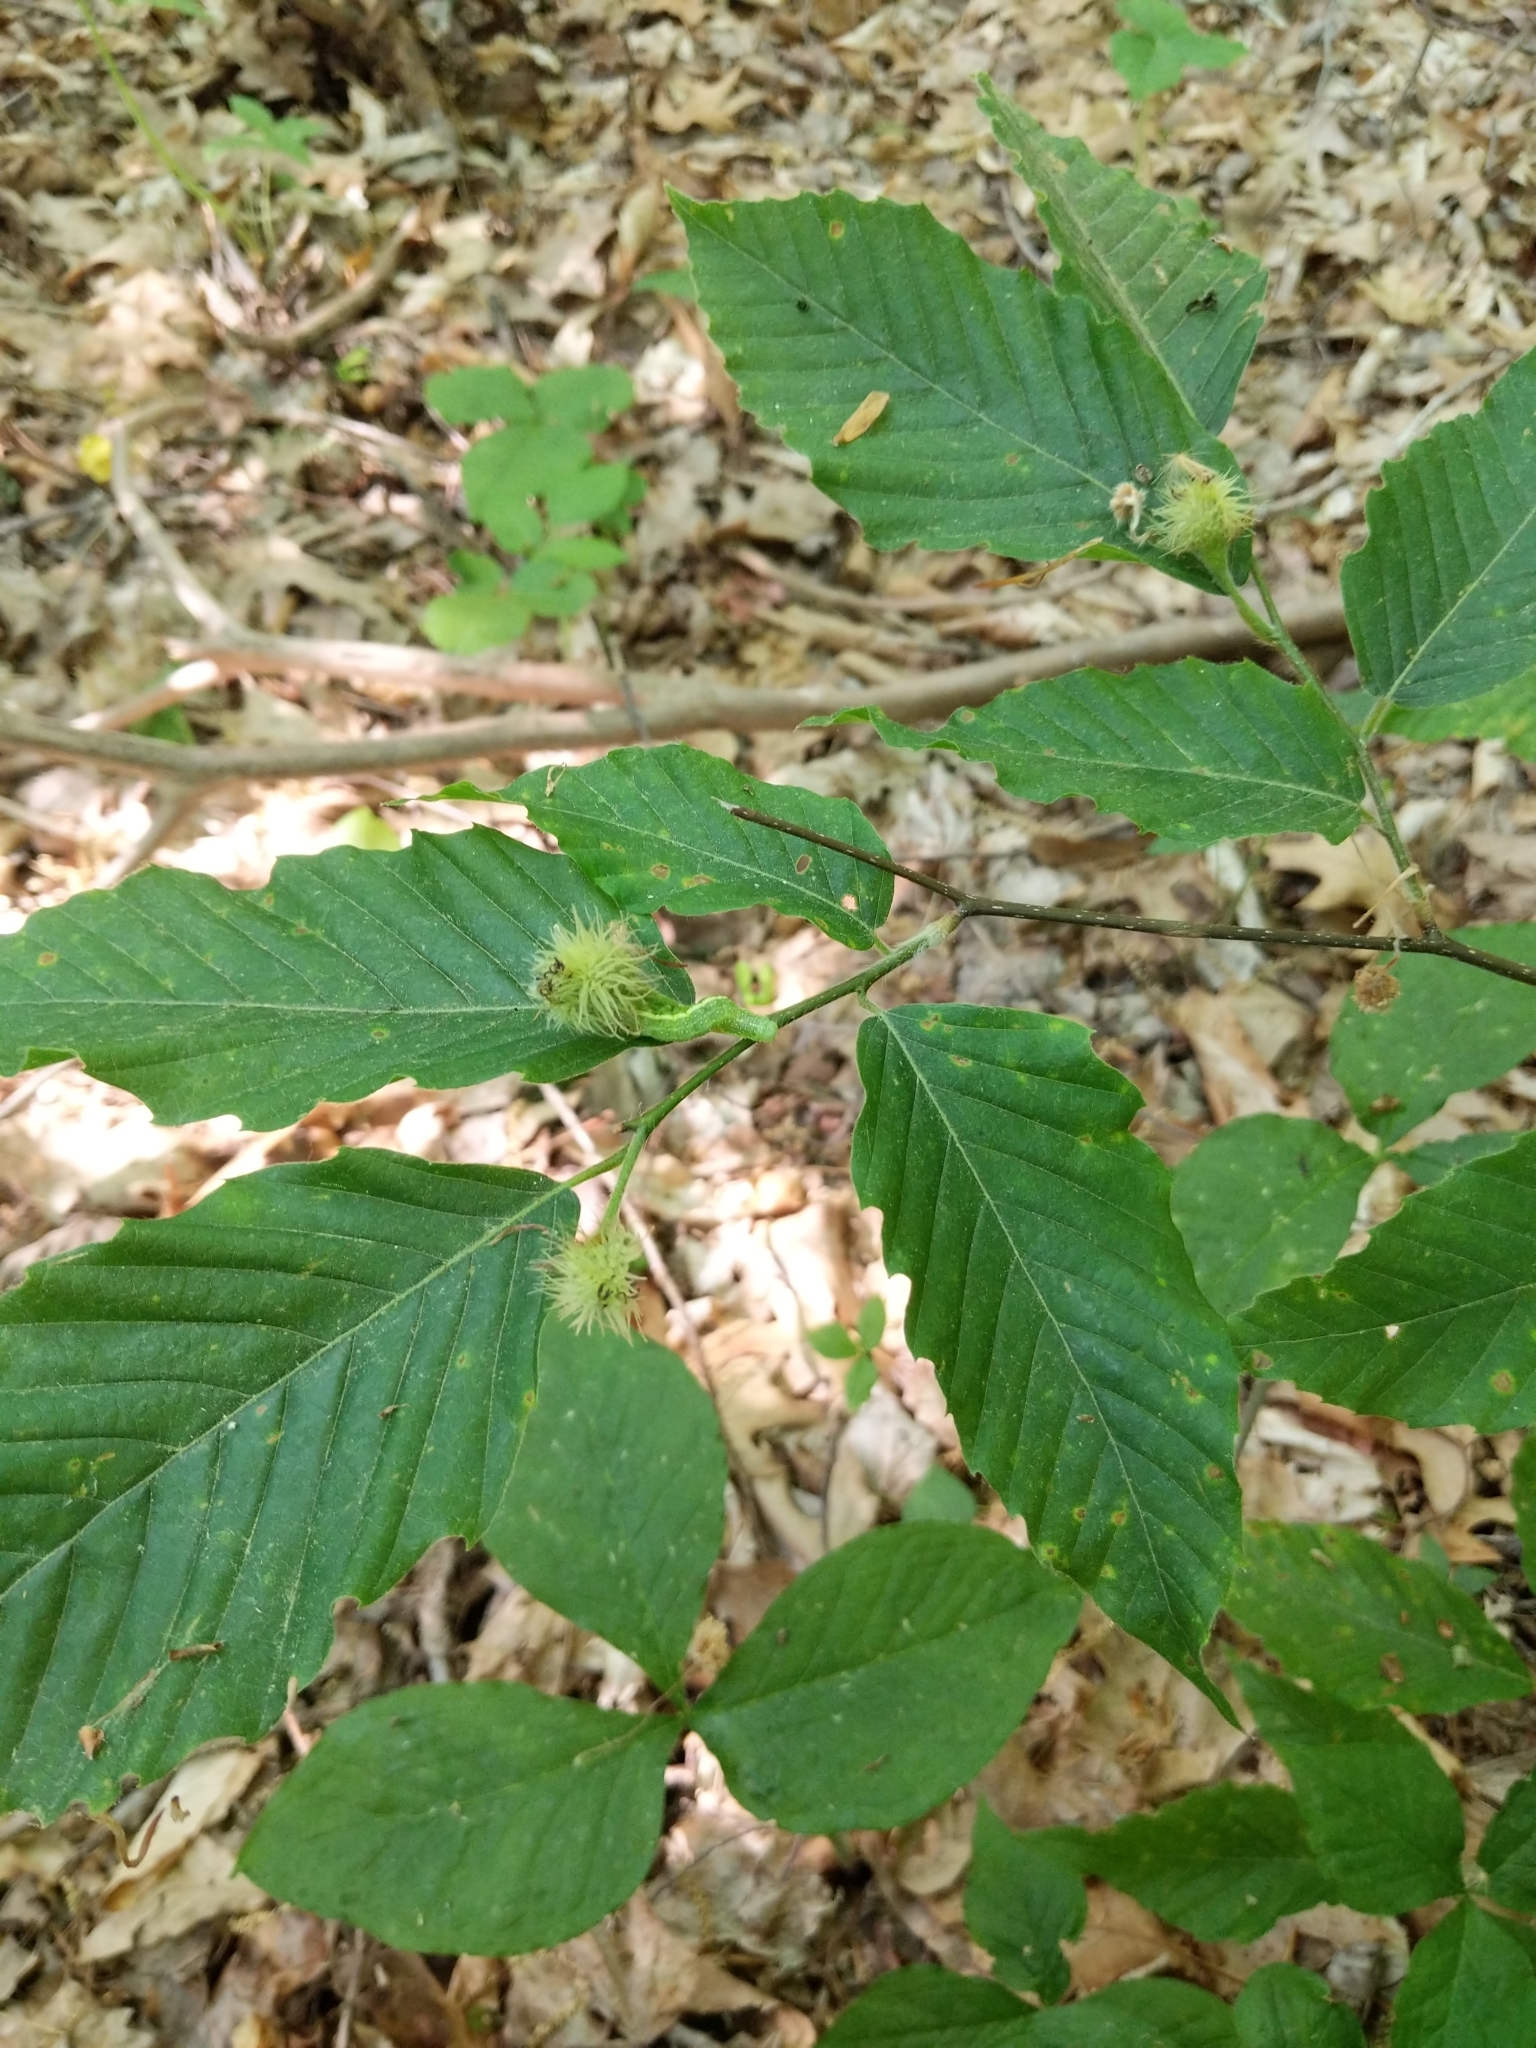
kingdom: Plantae
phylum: Tracheophyta
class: Magnoliopsida
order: Fagales
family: Fagaceae
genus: Fagus
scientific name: Fagus grandifolia
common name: American beech
